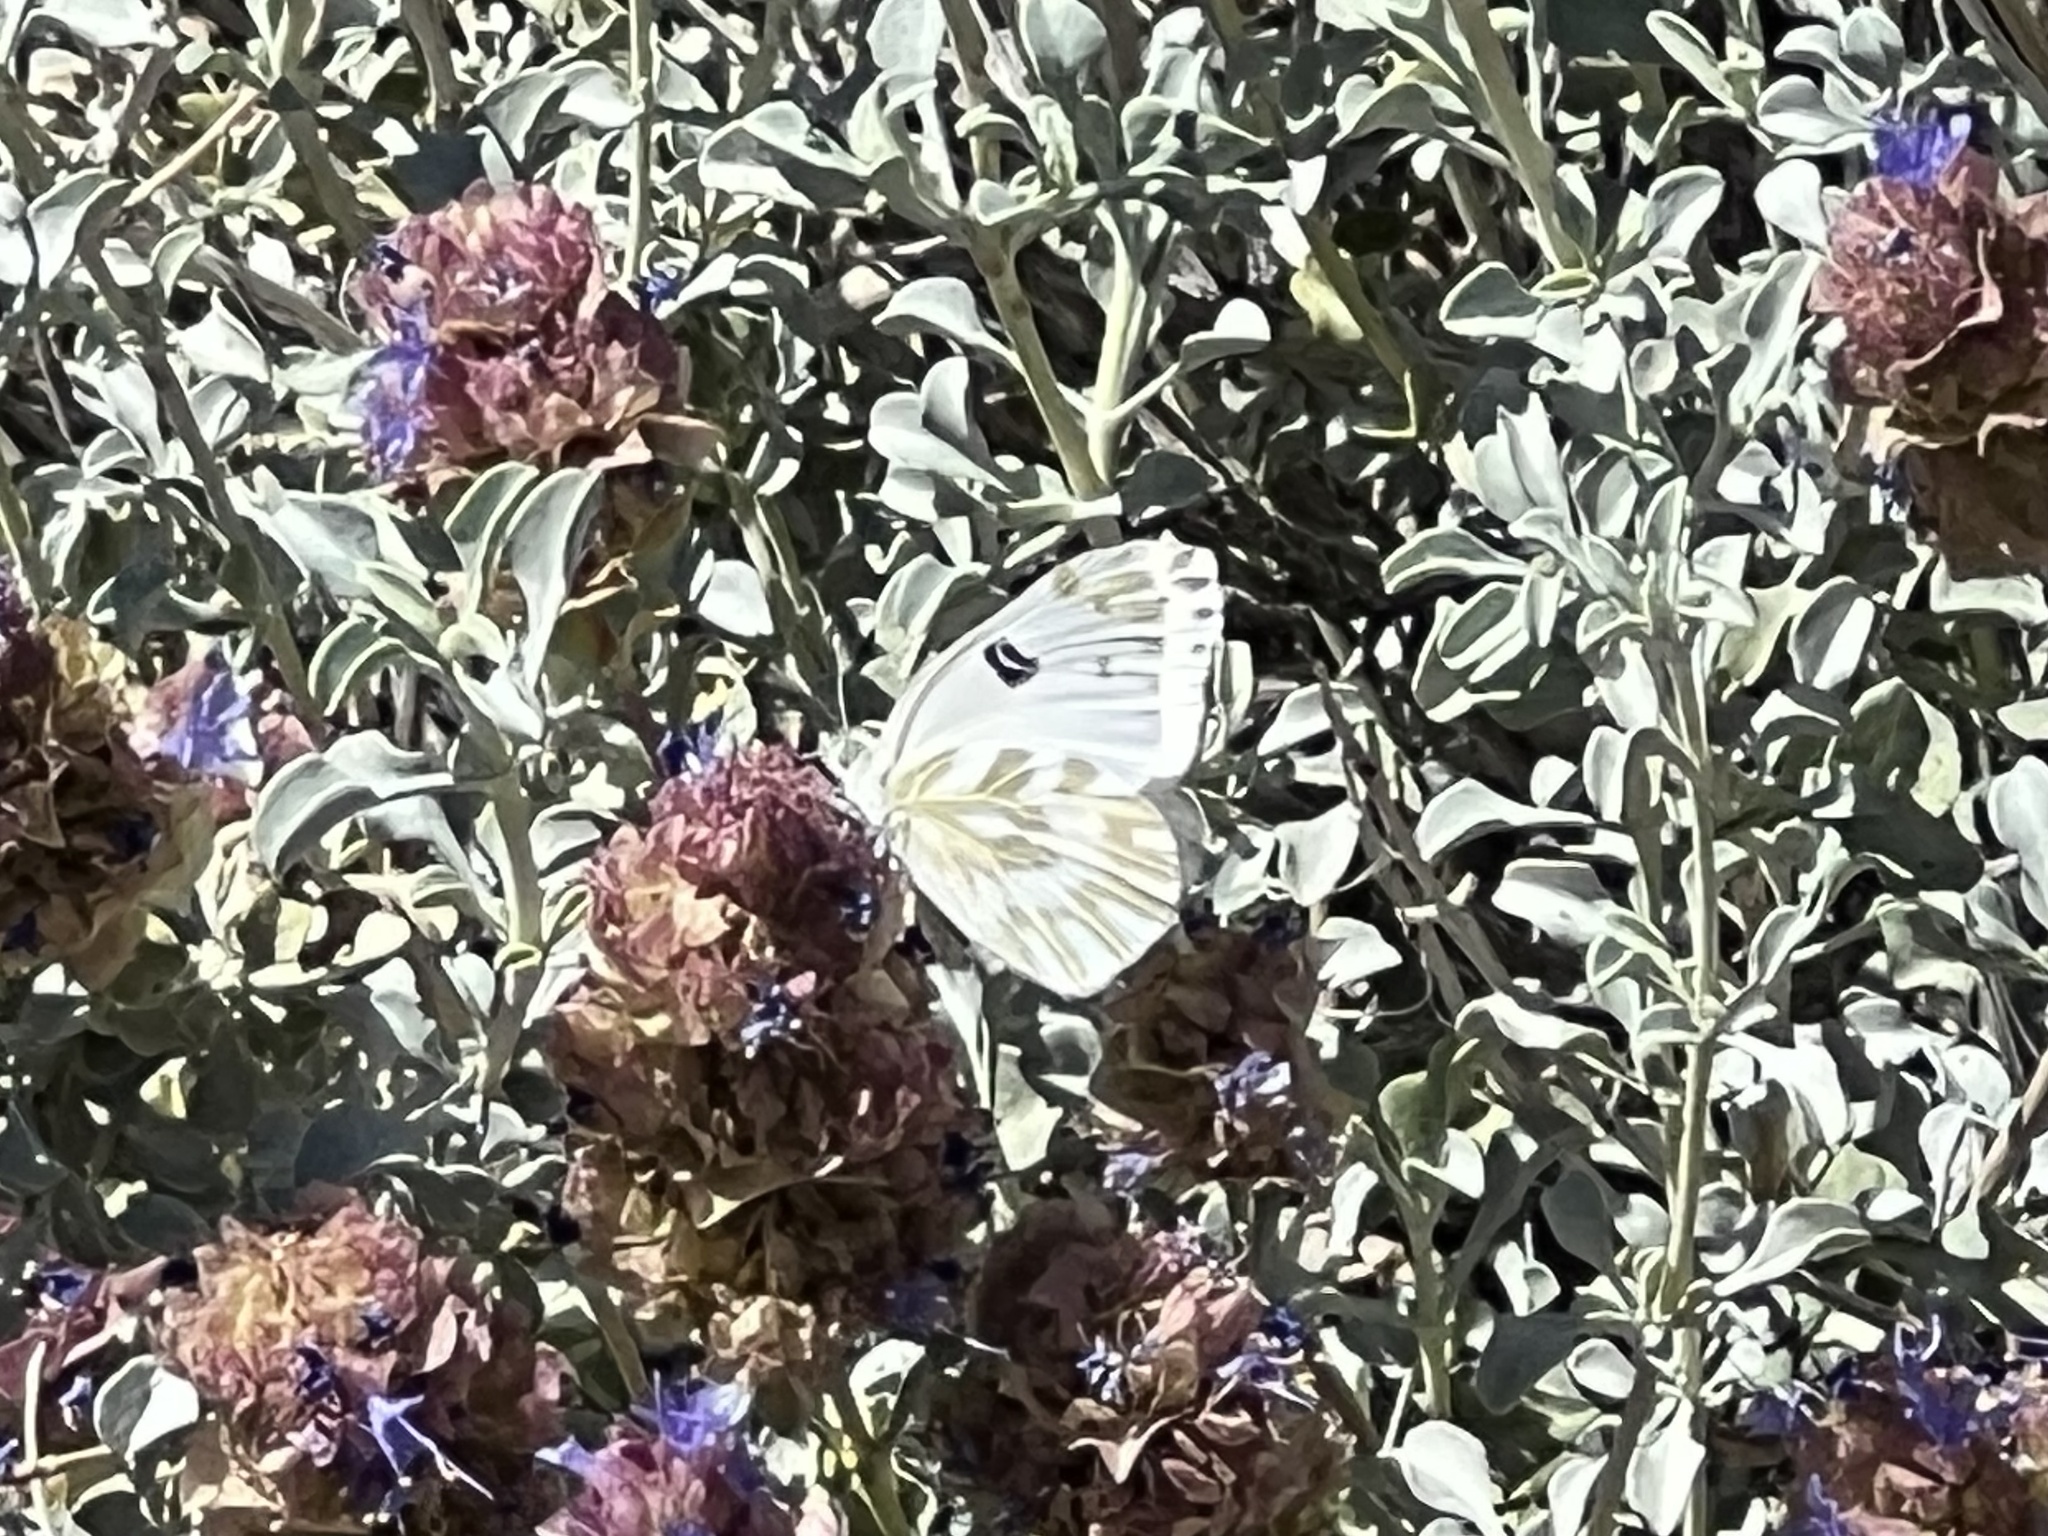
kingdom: Animalia
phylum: Arthropoda
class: Insecta
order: Lepidoptera
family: Pieridae
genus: Pontia
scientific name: Pontia beckerii
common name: Becker's white
